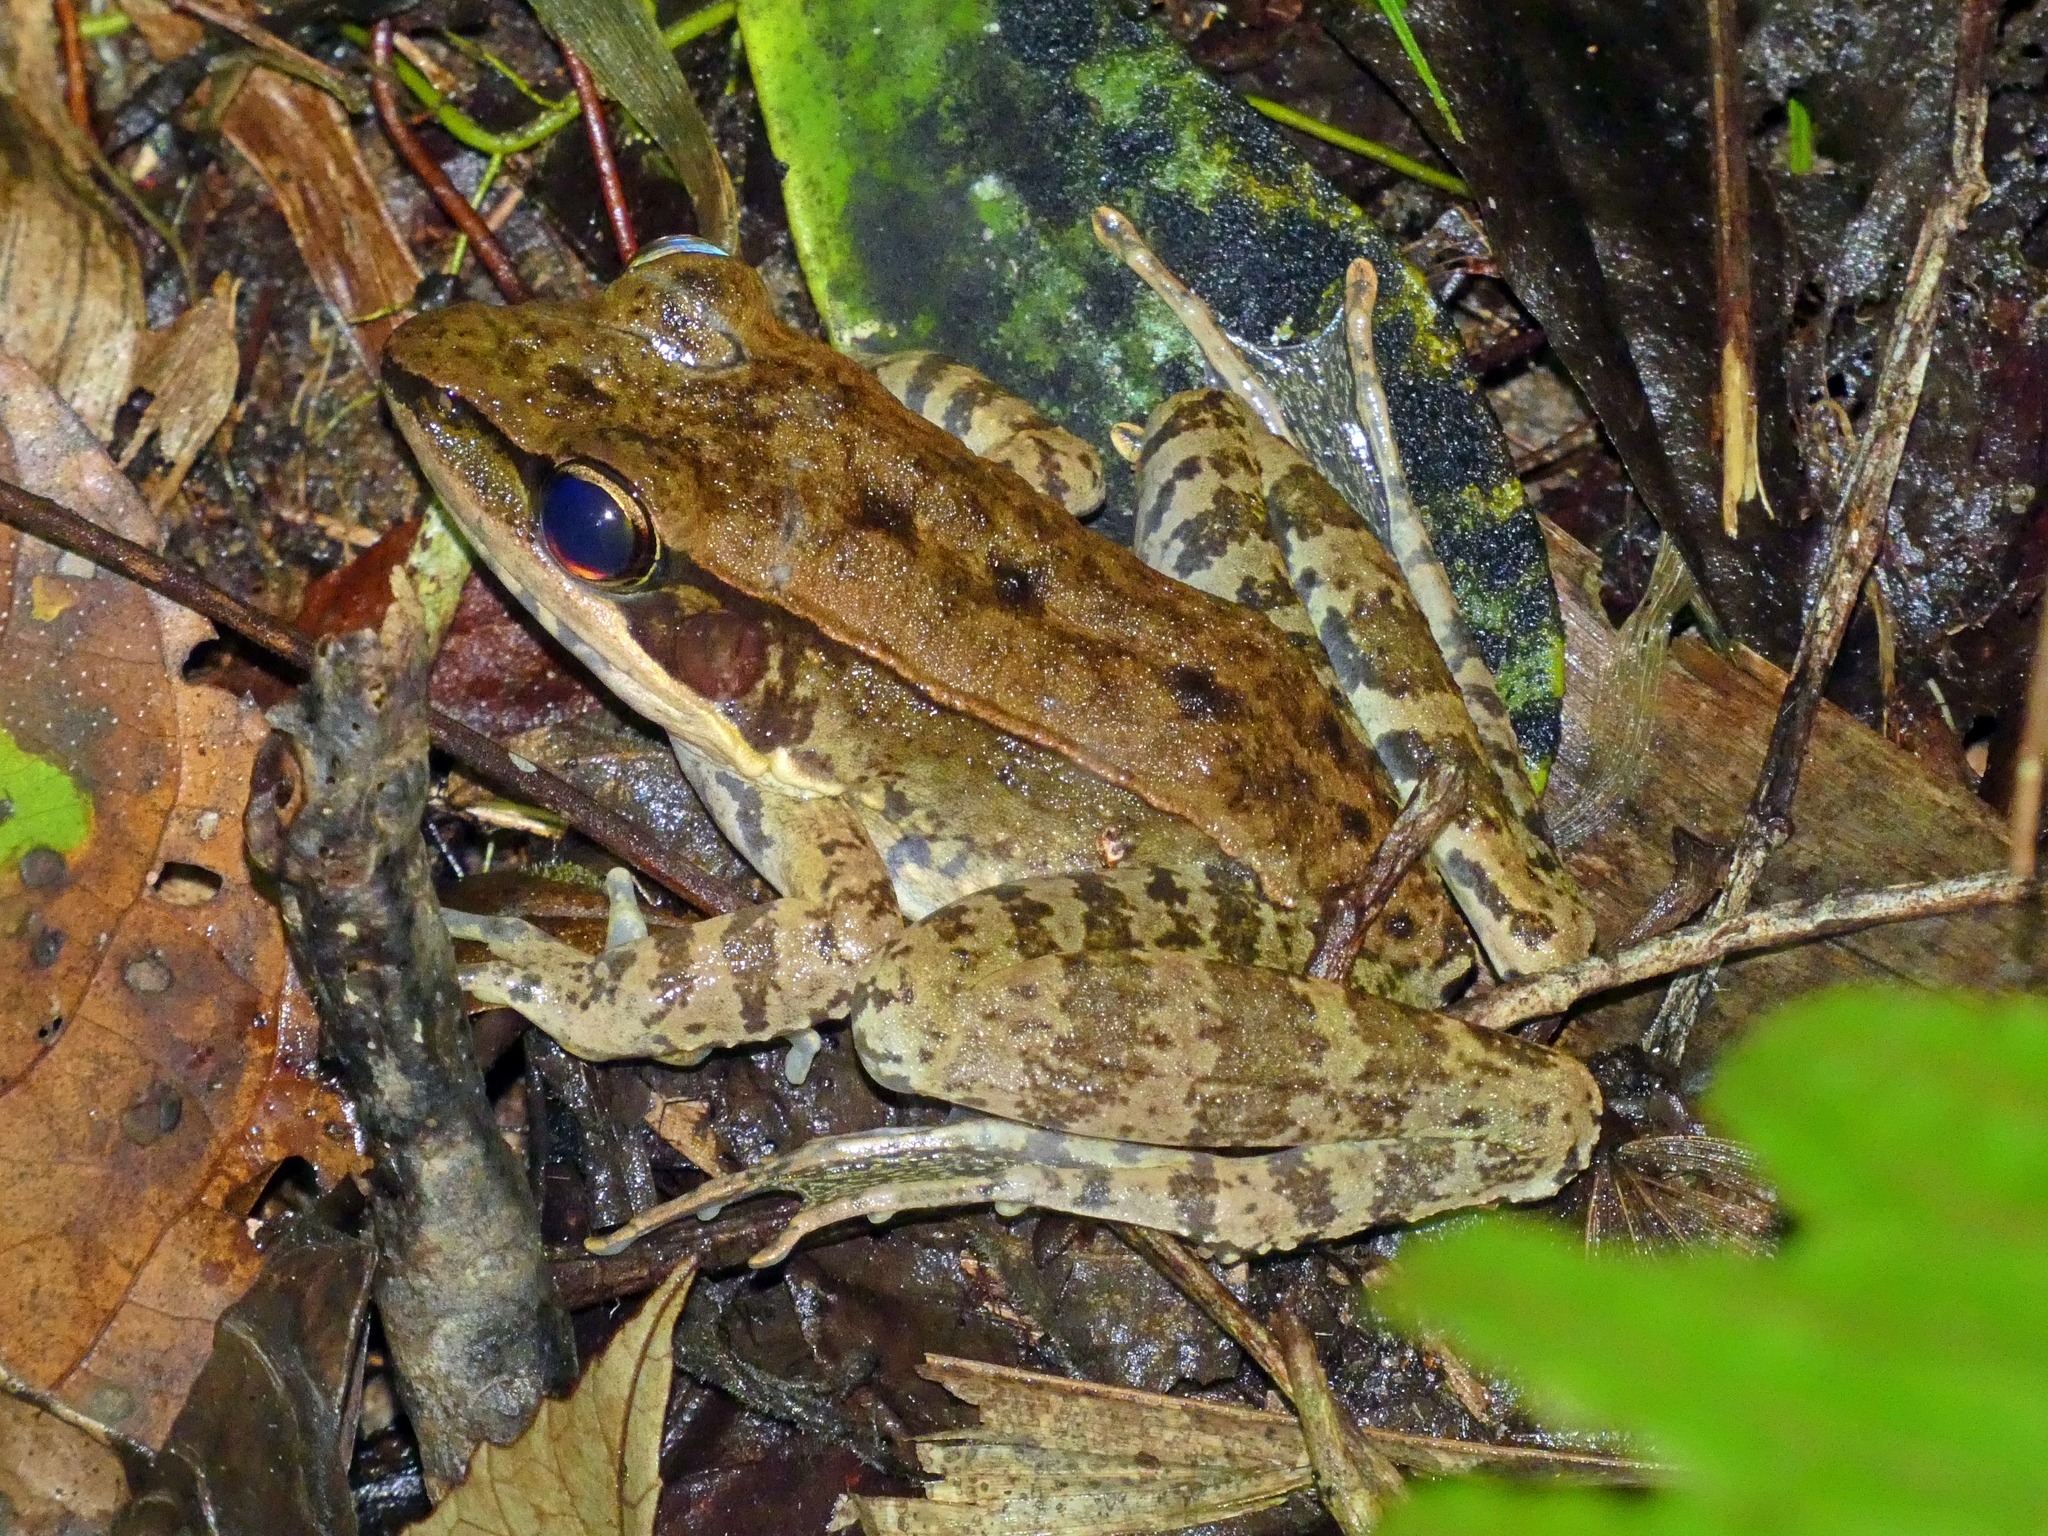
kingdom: Animalia
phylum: Chordata
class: Amphibia
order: Anura
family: Ranidae
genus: Papurana
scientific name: Papurana daemeli
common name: Arhem rana
